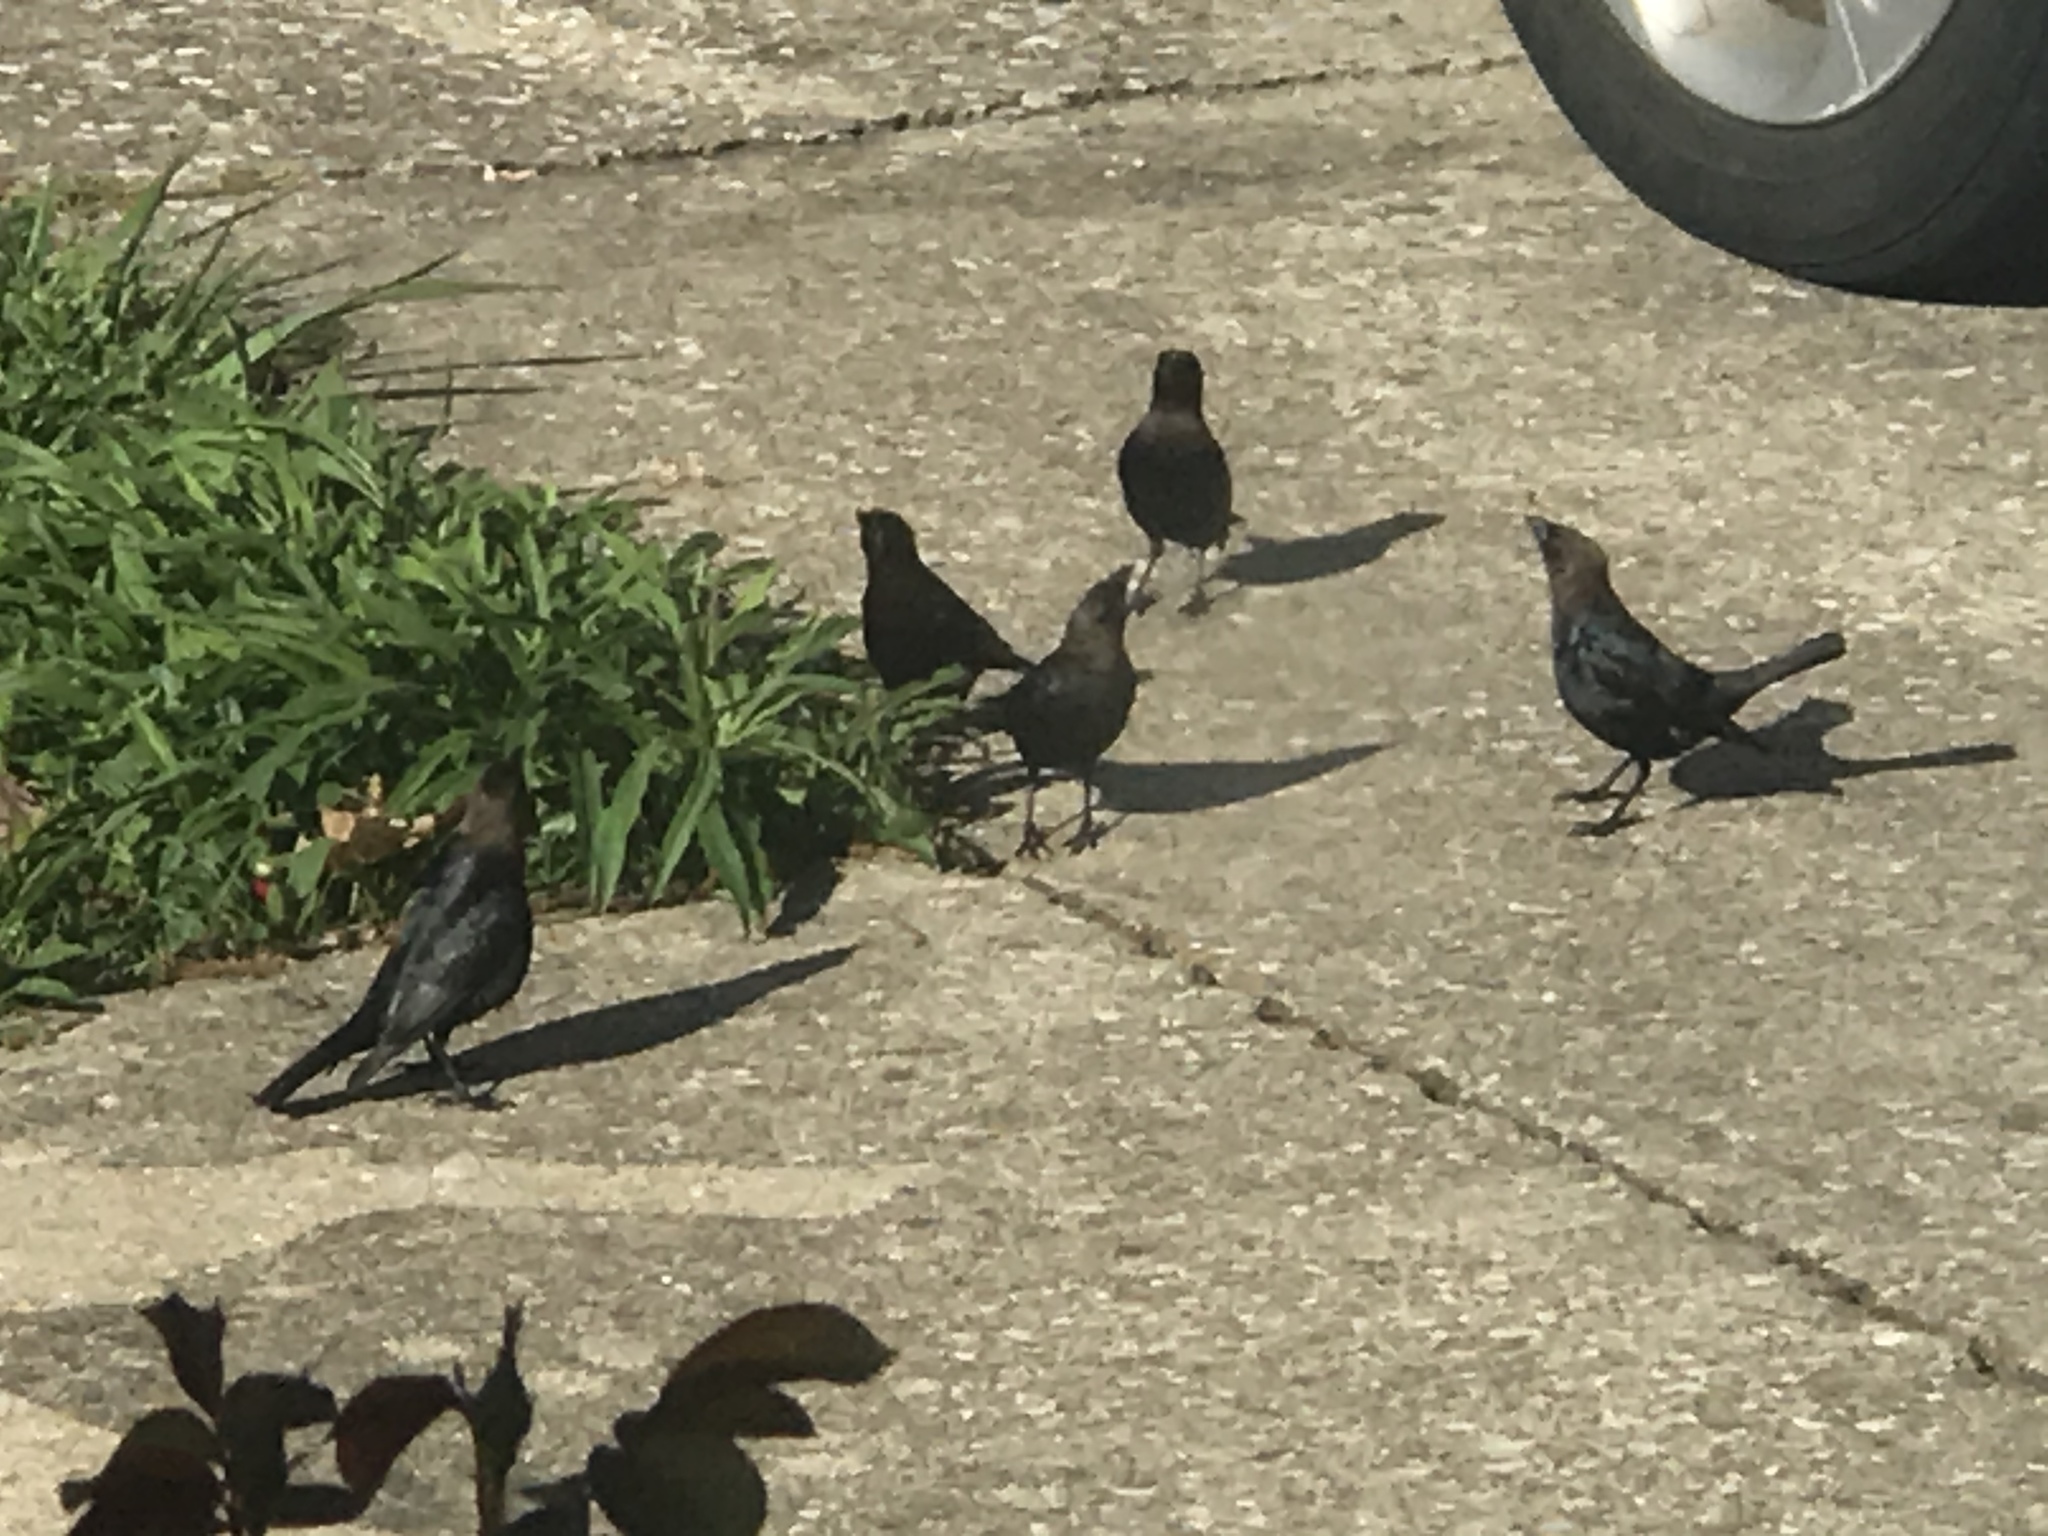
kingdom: Animalia
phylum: Chordata
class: Aves
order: Passeriformes
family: Icteridae
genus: Molothrus
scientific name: Molothrus ater
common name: Brown-headed cowbird
